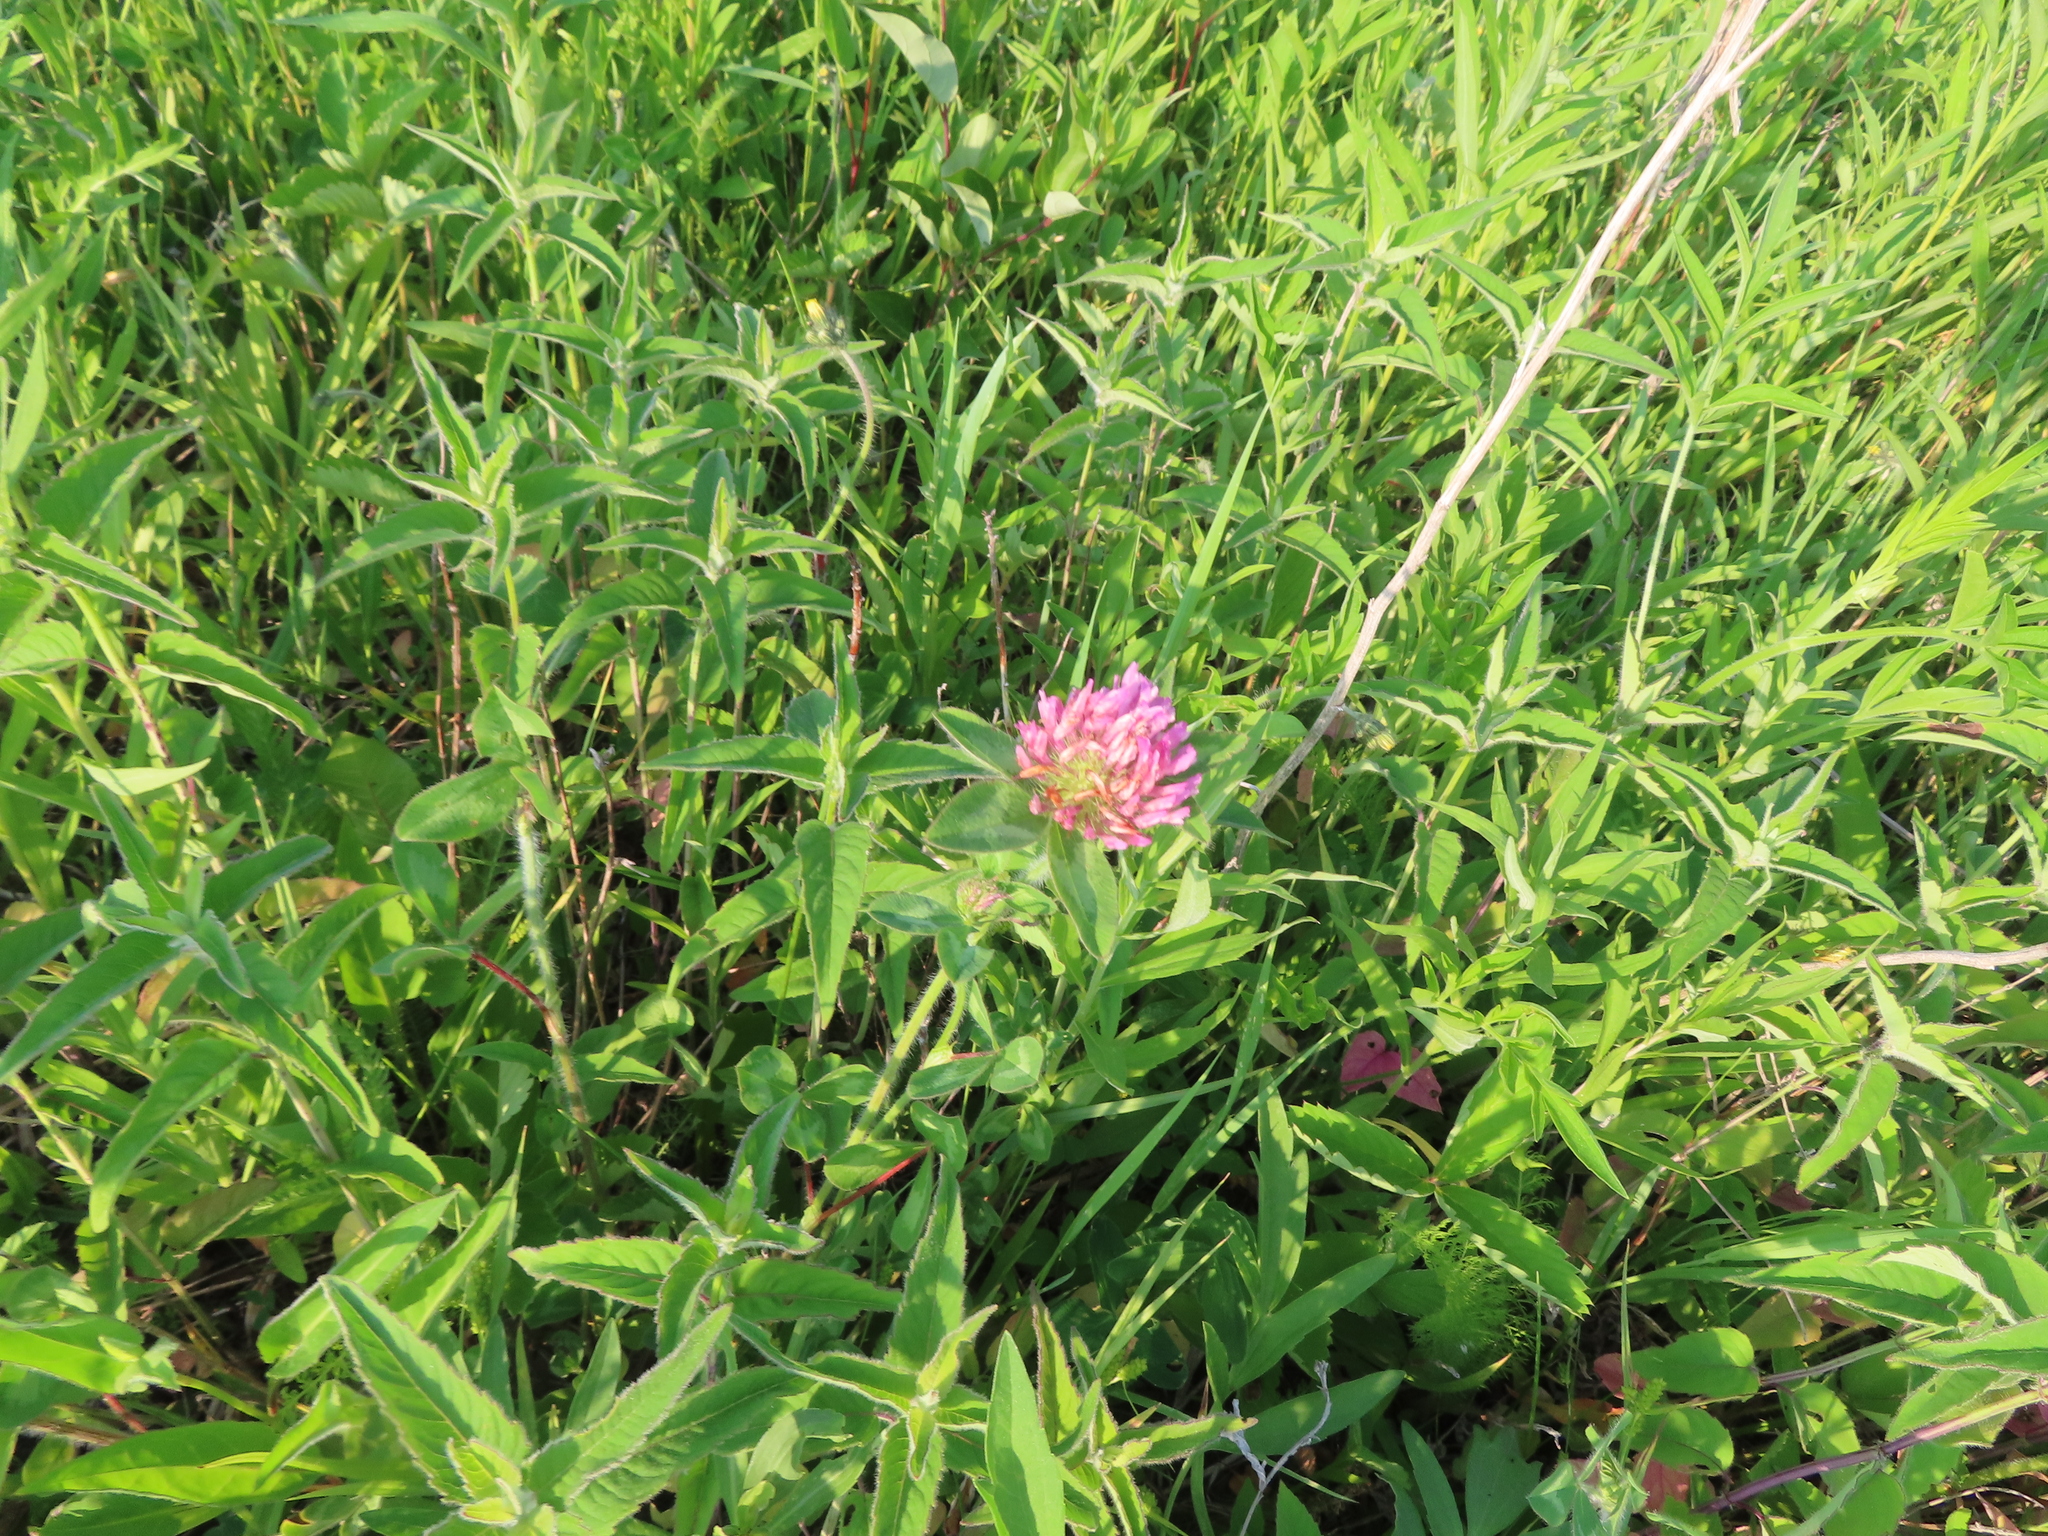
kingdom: Plantae
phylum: Tracheophyta
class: Magnoliopsida
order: Fabales
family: Fabaceae
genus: Trifolium
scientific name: Trifolium pratense
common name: Red clover
